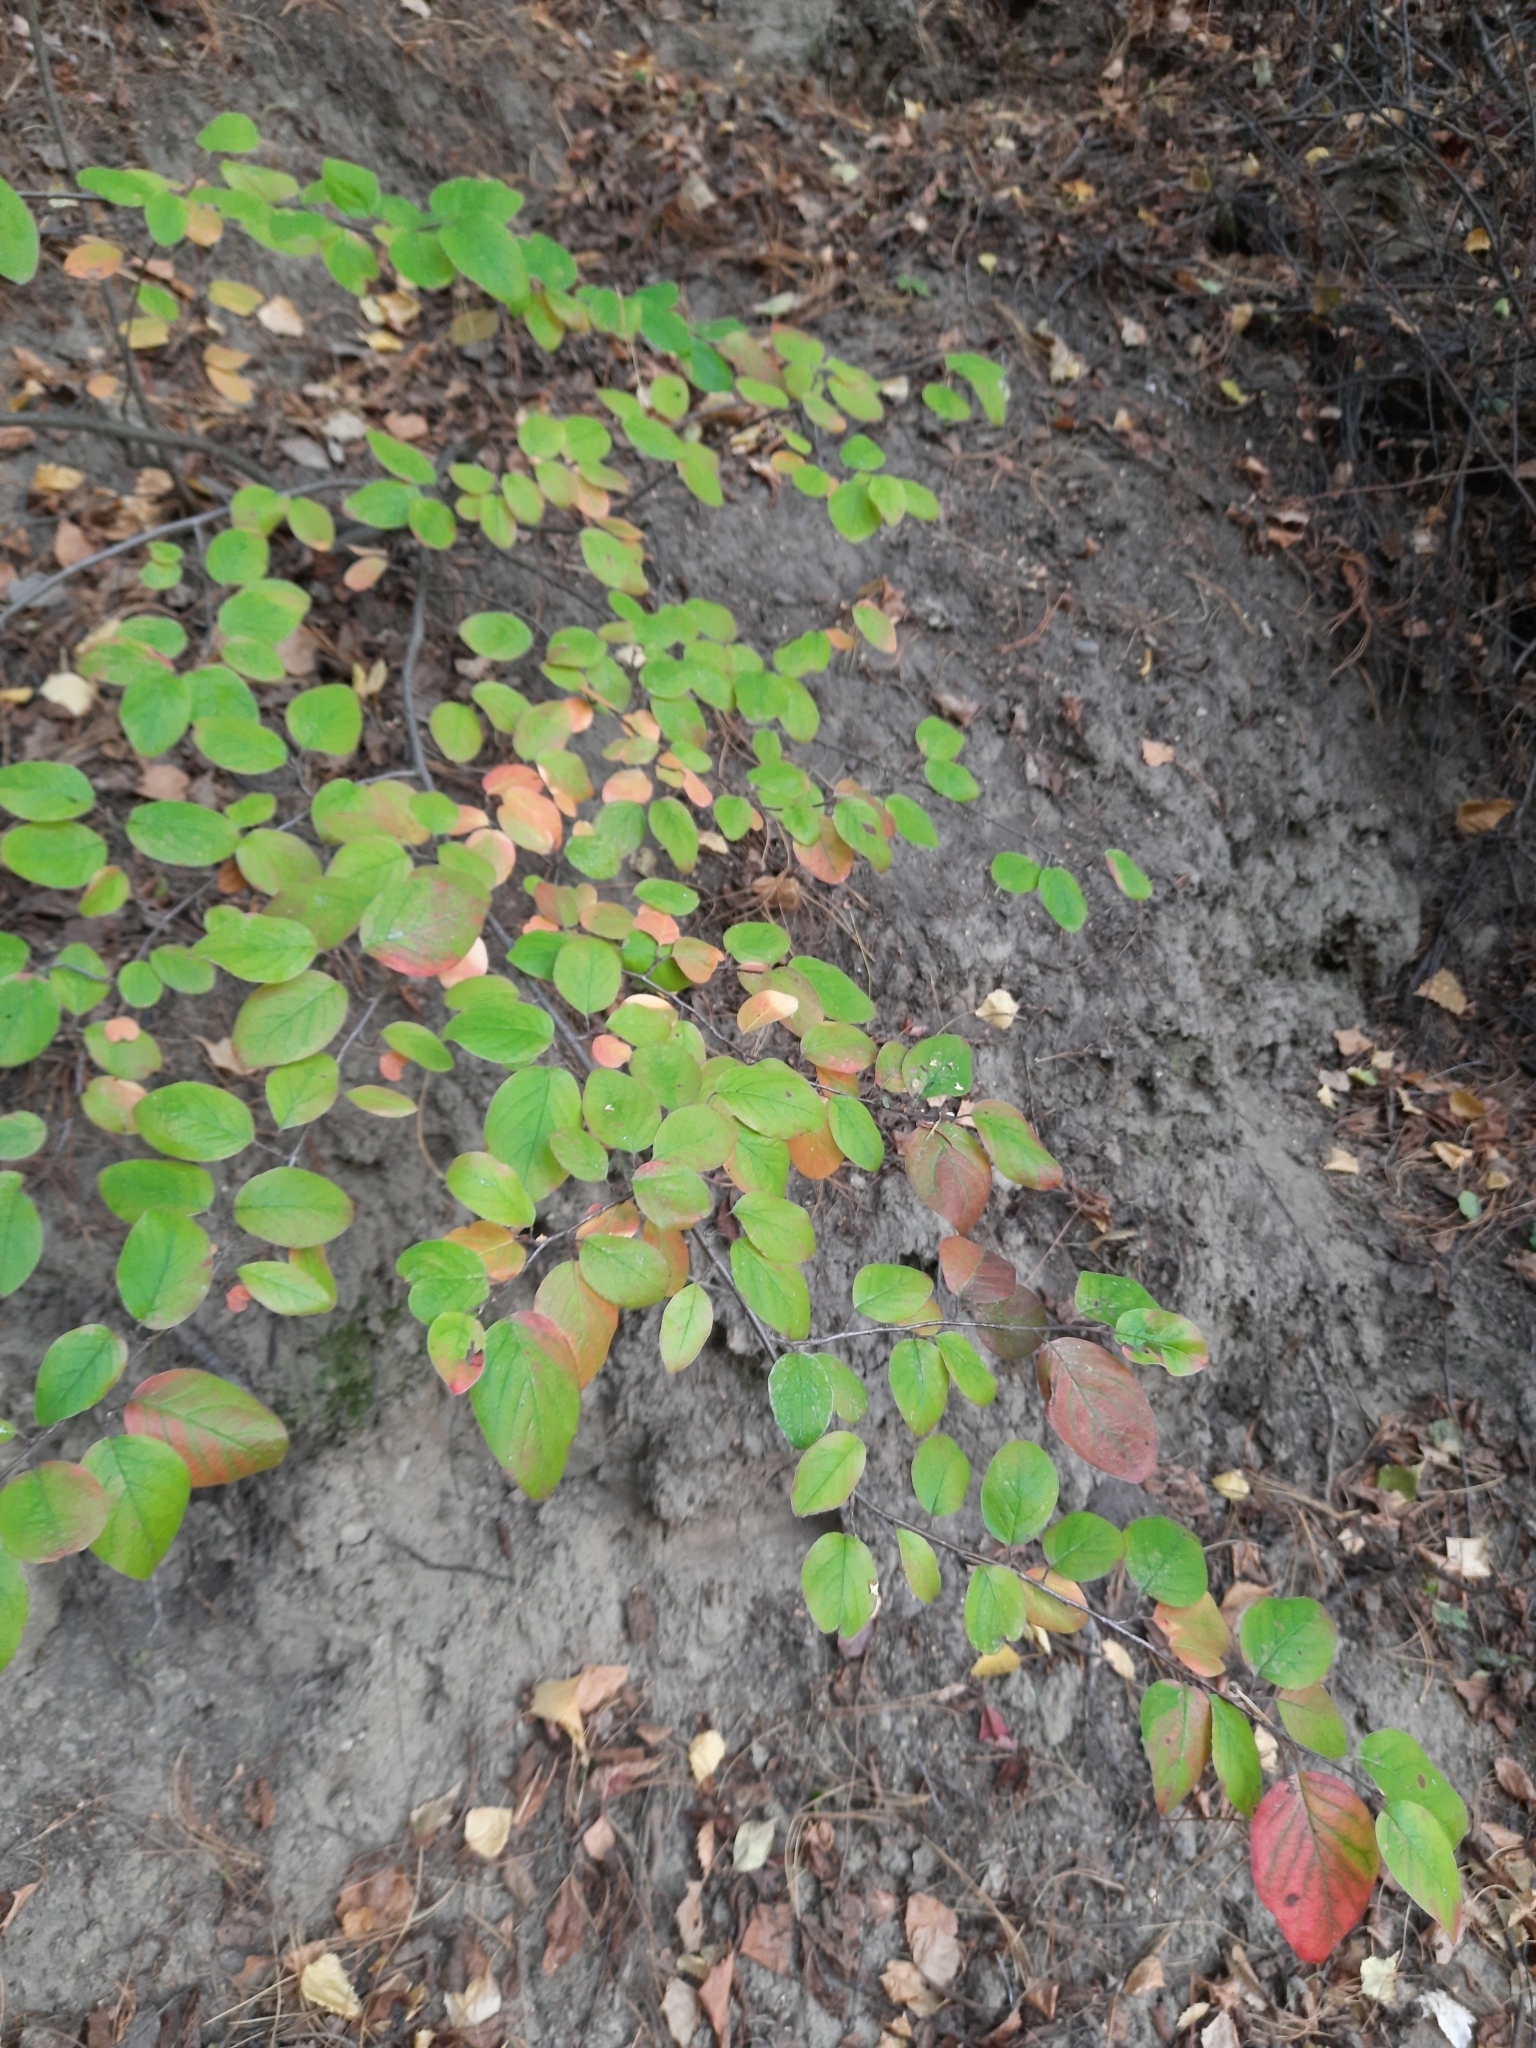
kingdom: Plantae
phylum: Tracheophyta
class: Magnoliopsida
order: Rosales
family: Rosaceae
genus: Cotoneaster
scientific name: Cotoneaster melanocarpus
